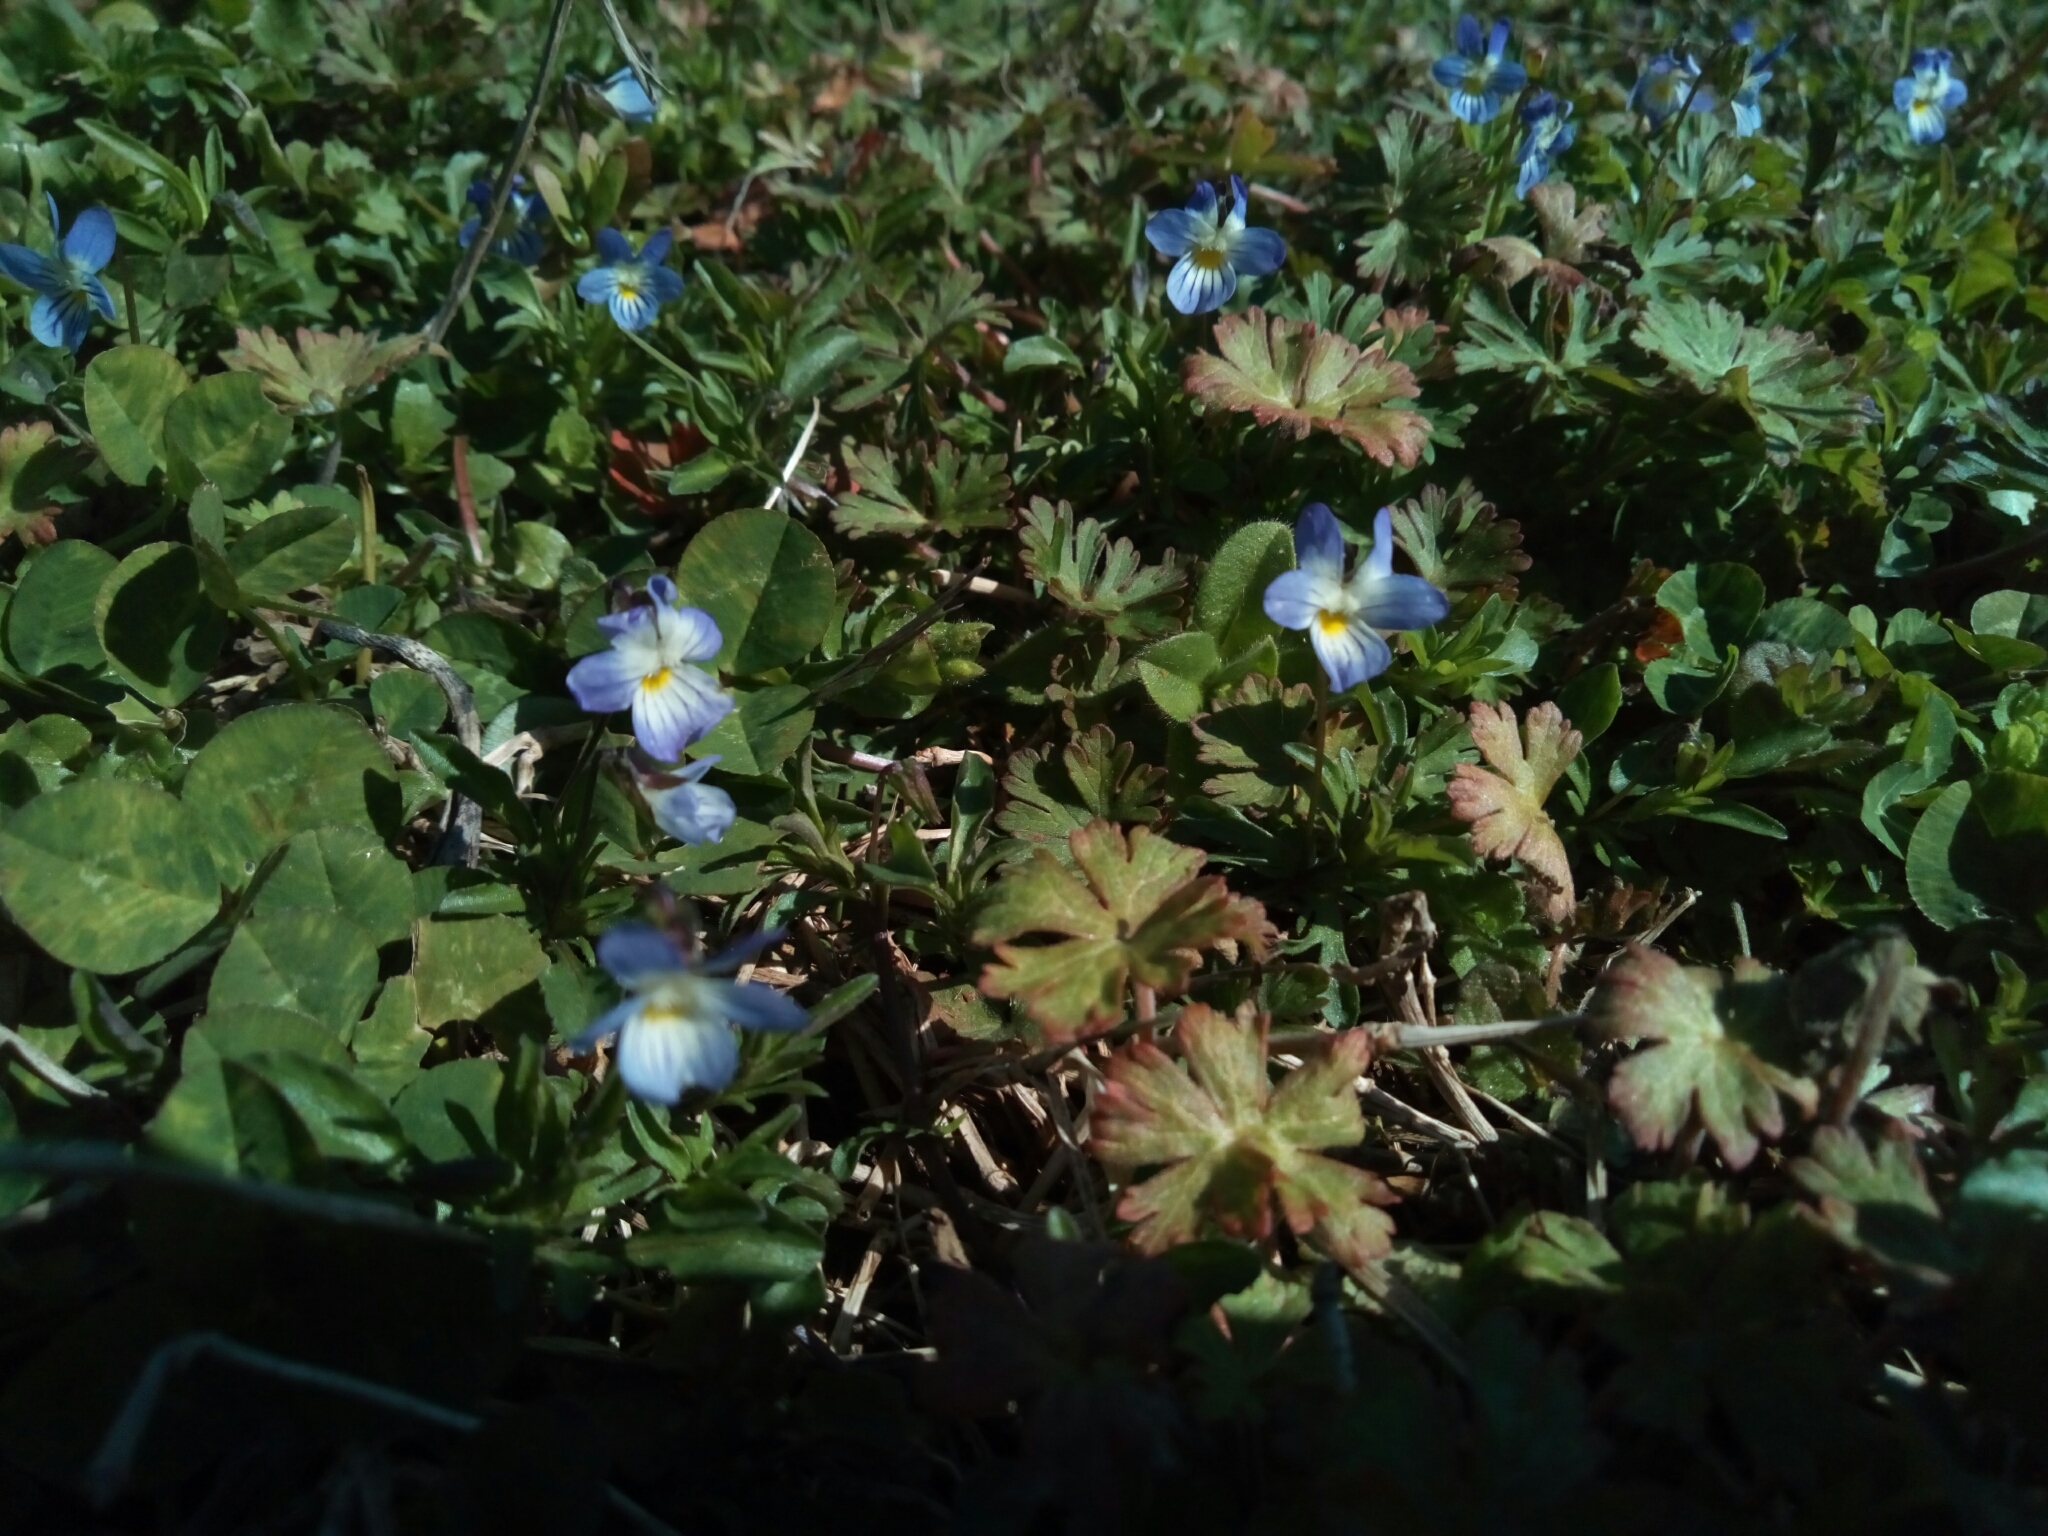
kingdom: Plantae
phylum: Tracheophyta
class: Magnoliopsida
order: Malpighiales
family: Violaceae
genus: Viola
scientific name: Viola rafinesquei
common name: American field pansy
